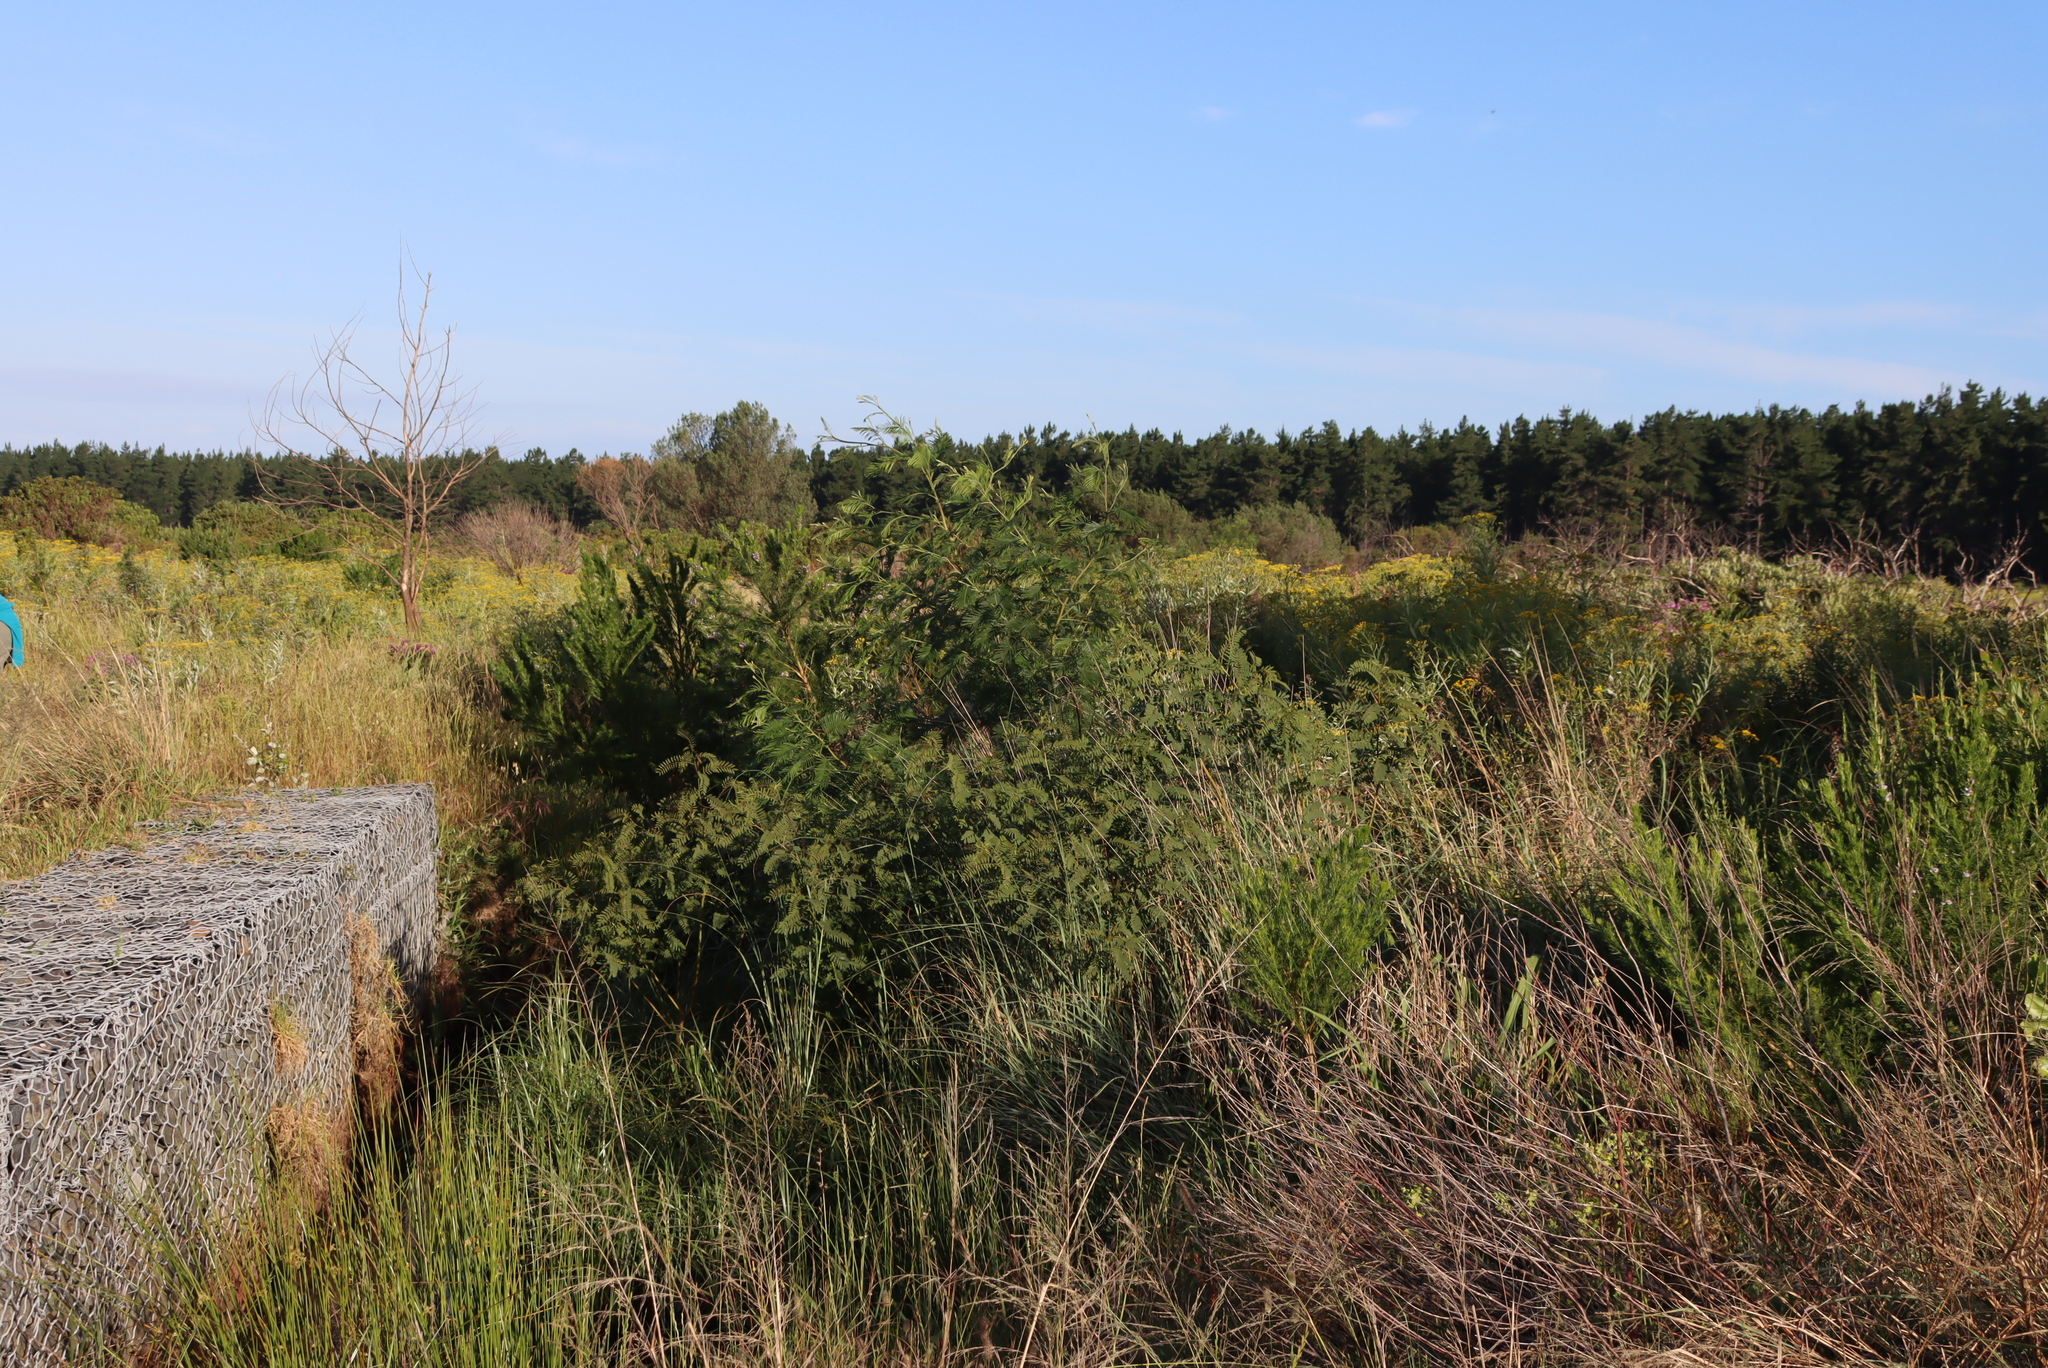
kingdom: Plantae
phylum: Tracheophyta
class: Magnoliopsida
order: Fabales
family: Fabaceae
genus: Sesbania
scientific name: Sesbania punicea
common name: Rattlebox
